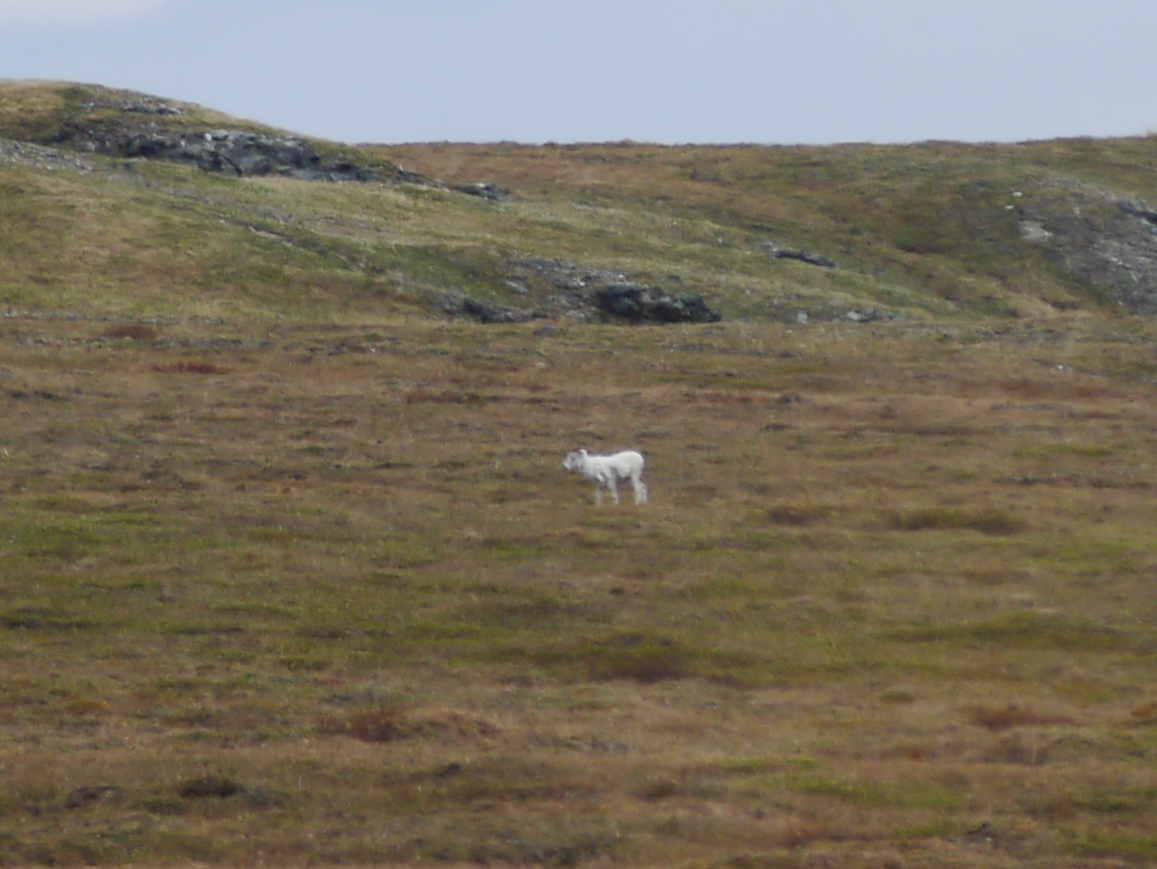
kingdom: Animalia
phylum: Chordata
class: Mammalia
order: Artiodactyla
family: Bovidae
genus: Ovis
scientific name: Ovis dalli
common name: Dall's sheep
